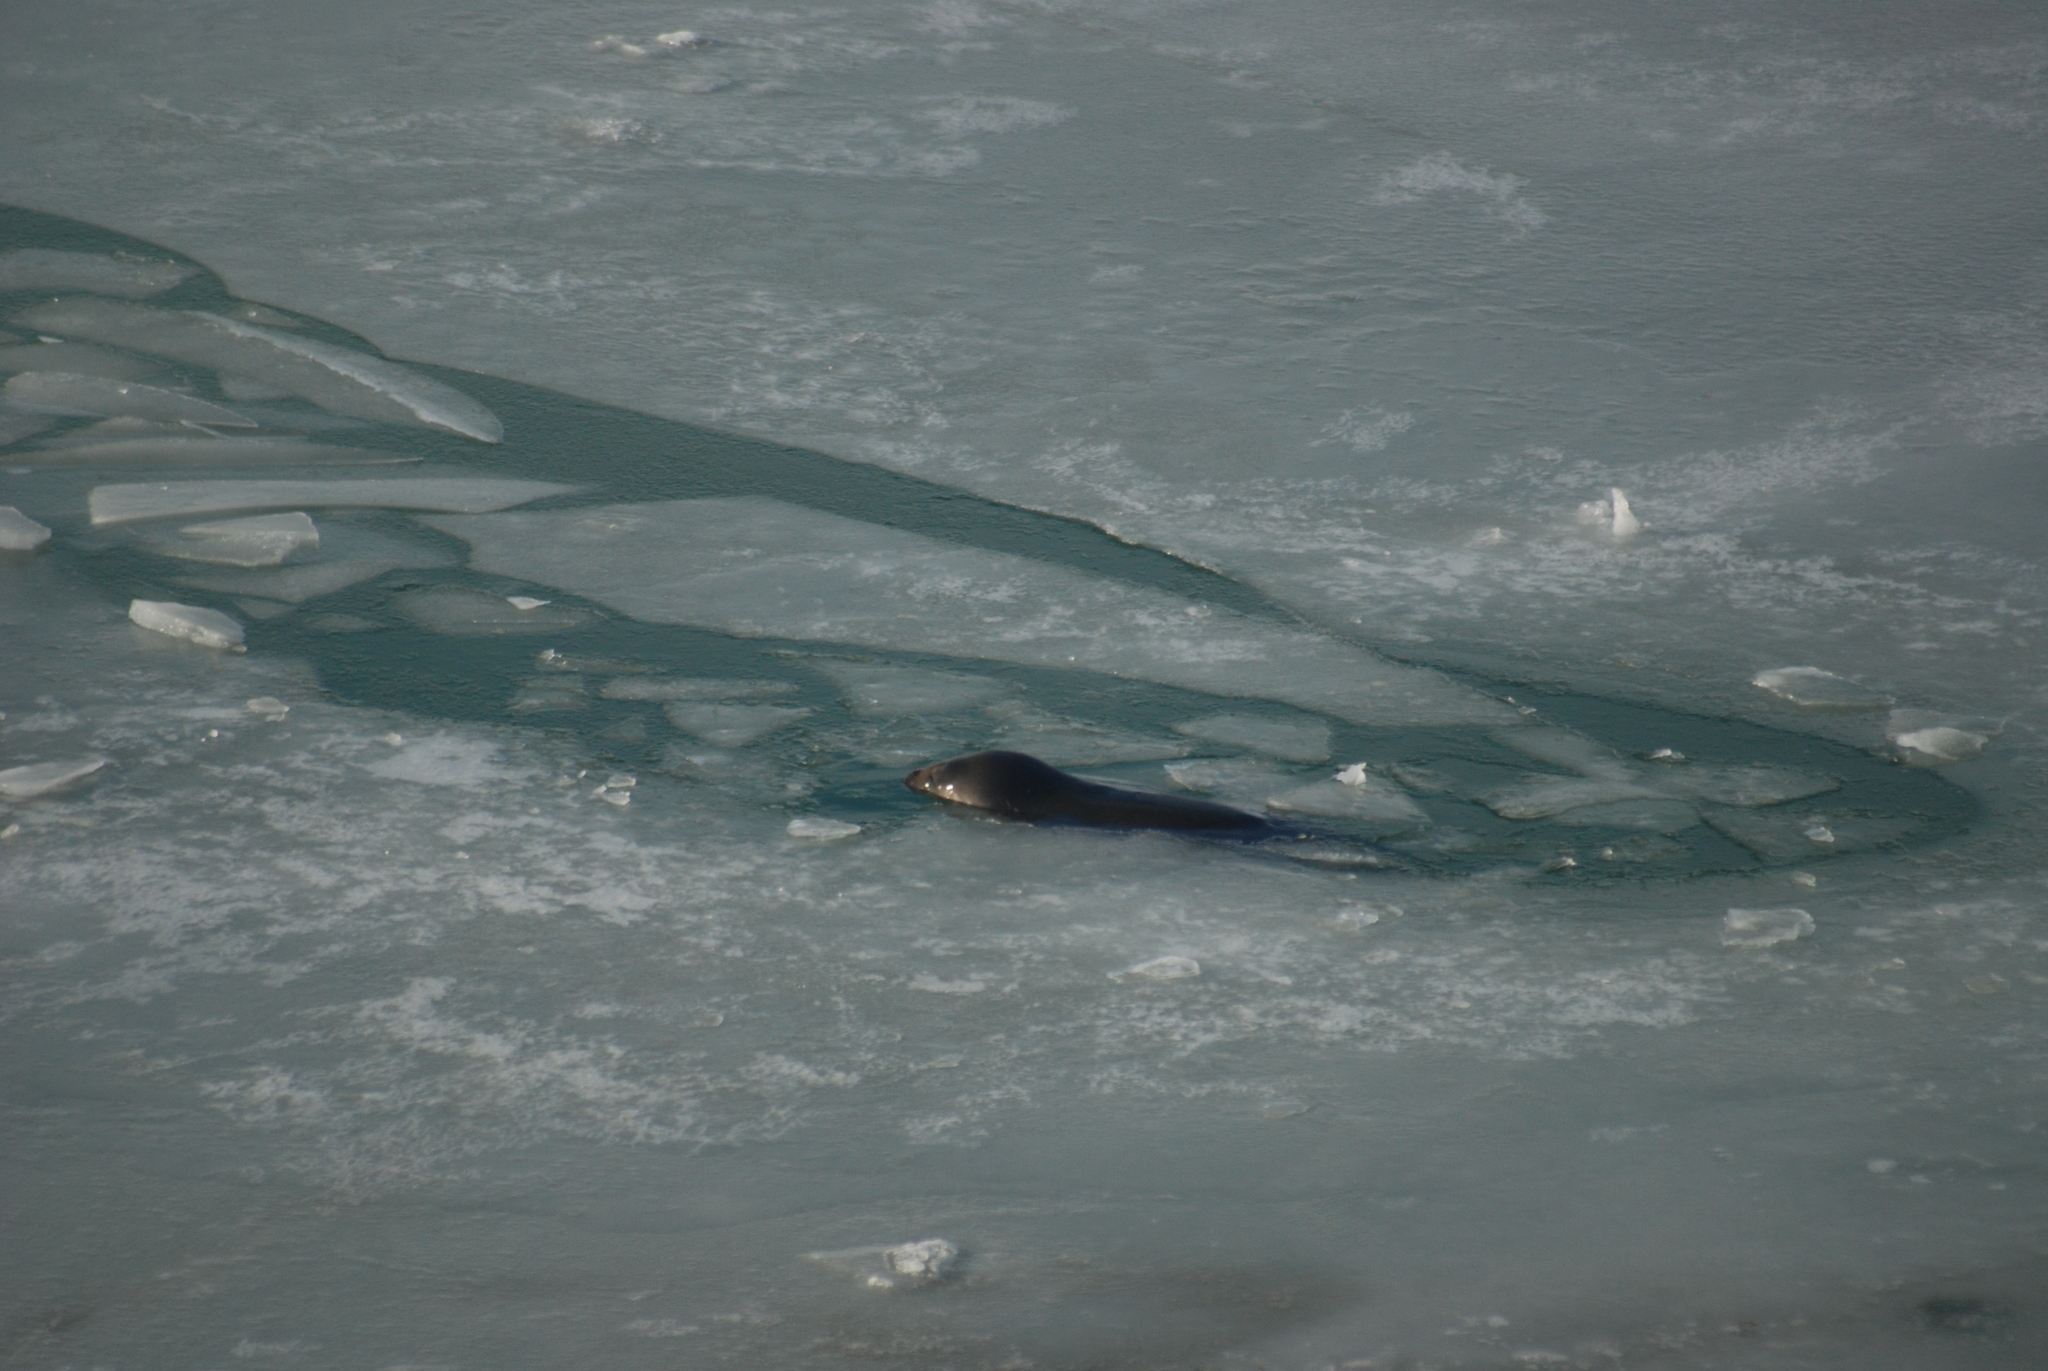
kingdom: Animalia
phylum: Chordata
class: Mammalia
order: Carnivora
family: Phocidae
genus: Leptonychotes
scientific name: Leptonychotes weddellii
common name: Weddell seal
